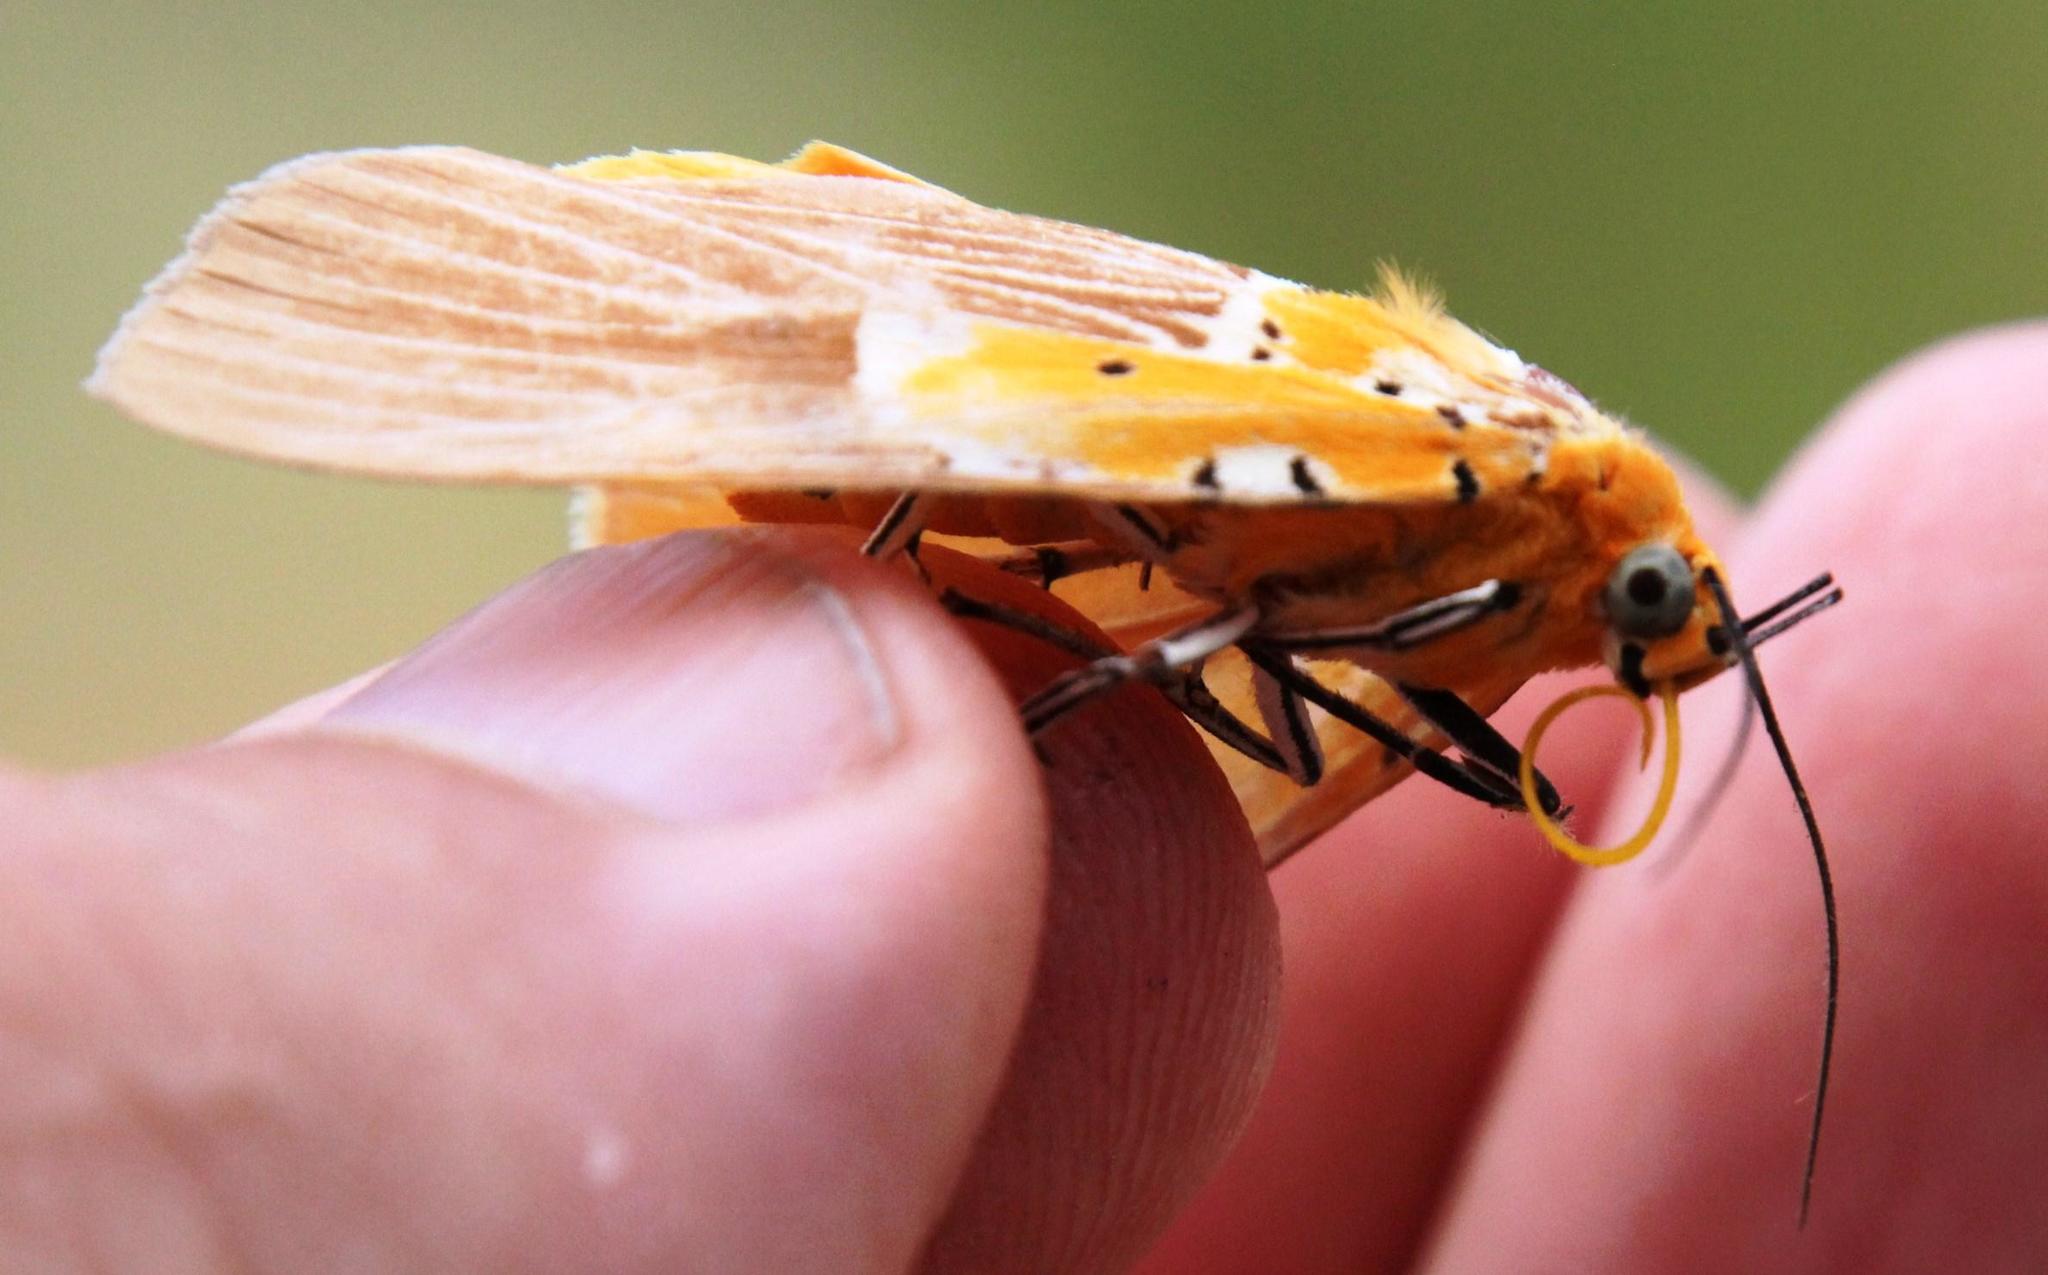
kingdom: Animalia
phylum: Arthropoda
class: Insecta
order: Lepidoptera
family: Erebidae
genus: Asota
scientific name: Asota speciosa
